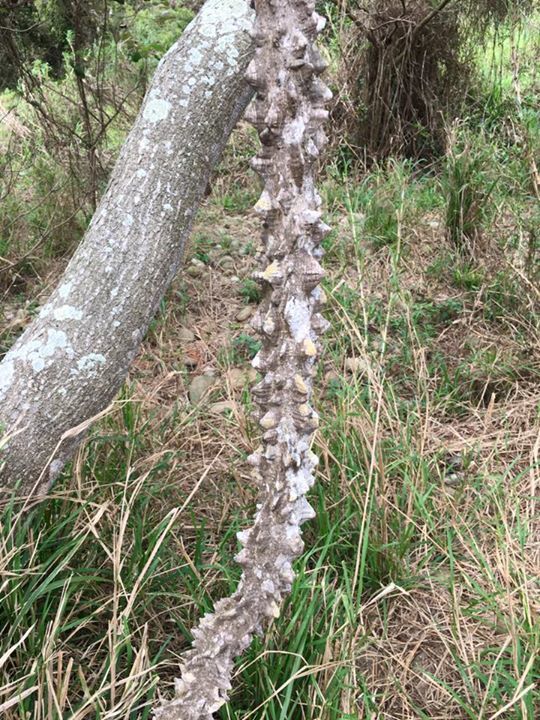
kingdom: Plantae
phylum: Tracheophyta
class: Magnoliopsida
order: Sapindales
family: Rutaceae
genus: Zanthoxylum
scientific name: Zanthoxylum asiaticum
